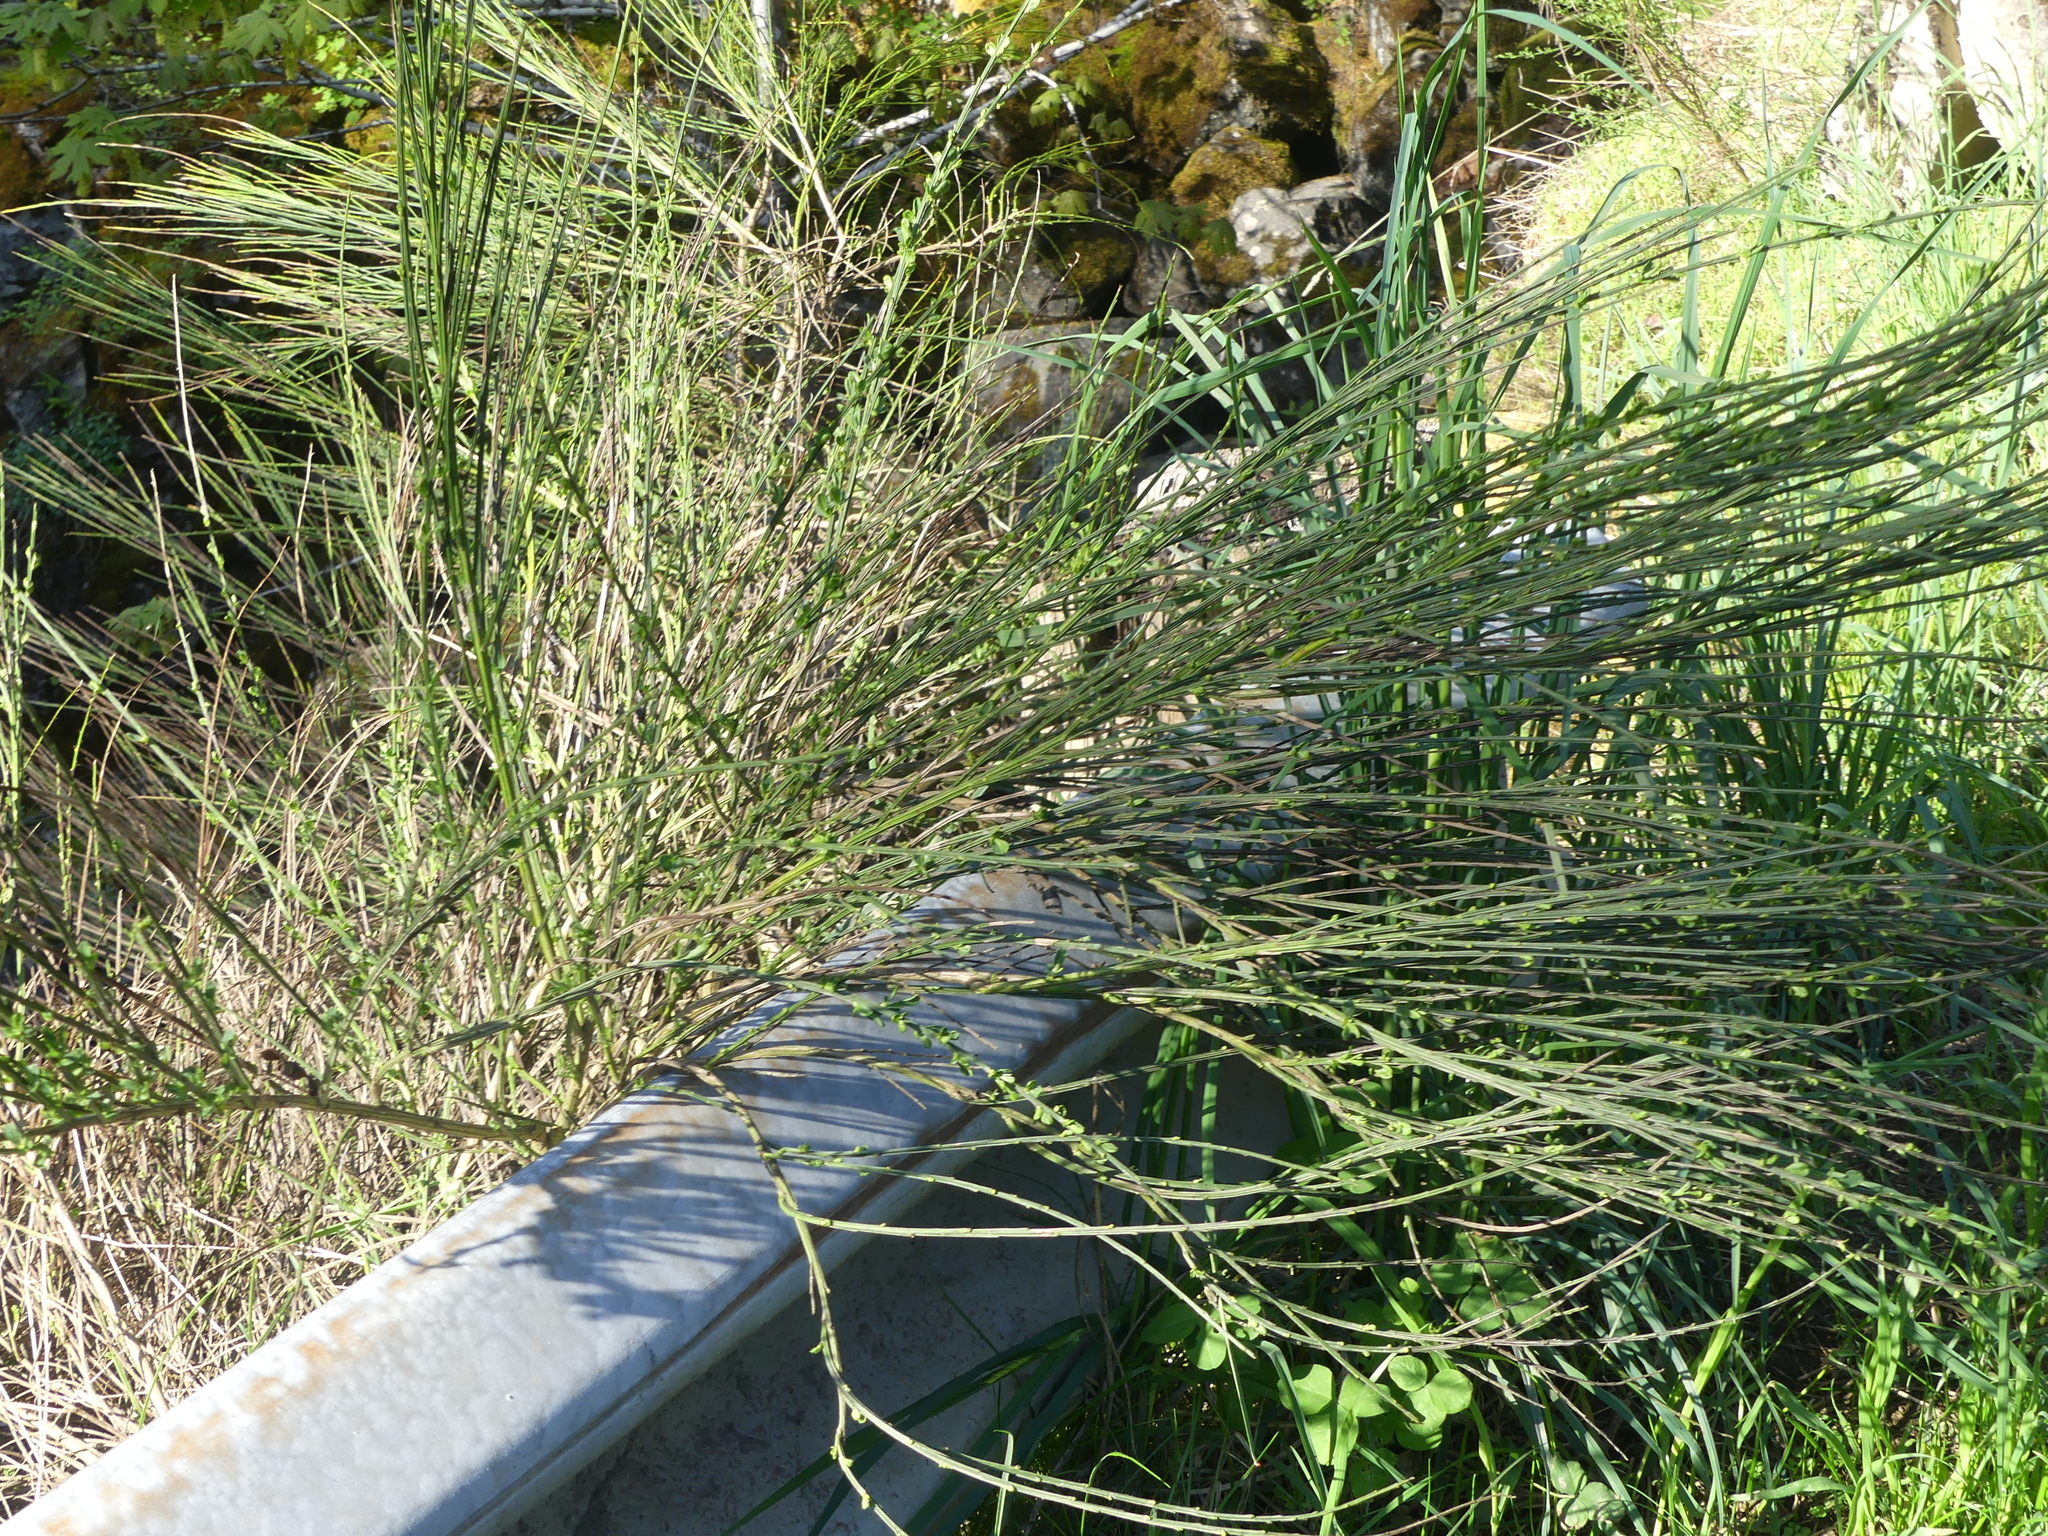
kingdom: Plantae
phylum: Tracheophyta
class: Magnoliopsida
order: Fabales
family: Fabaceae
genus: Cytisus
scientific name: Cytisus scoparius
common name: Scotch broom
